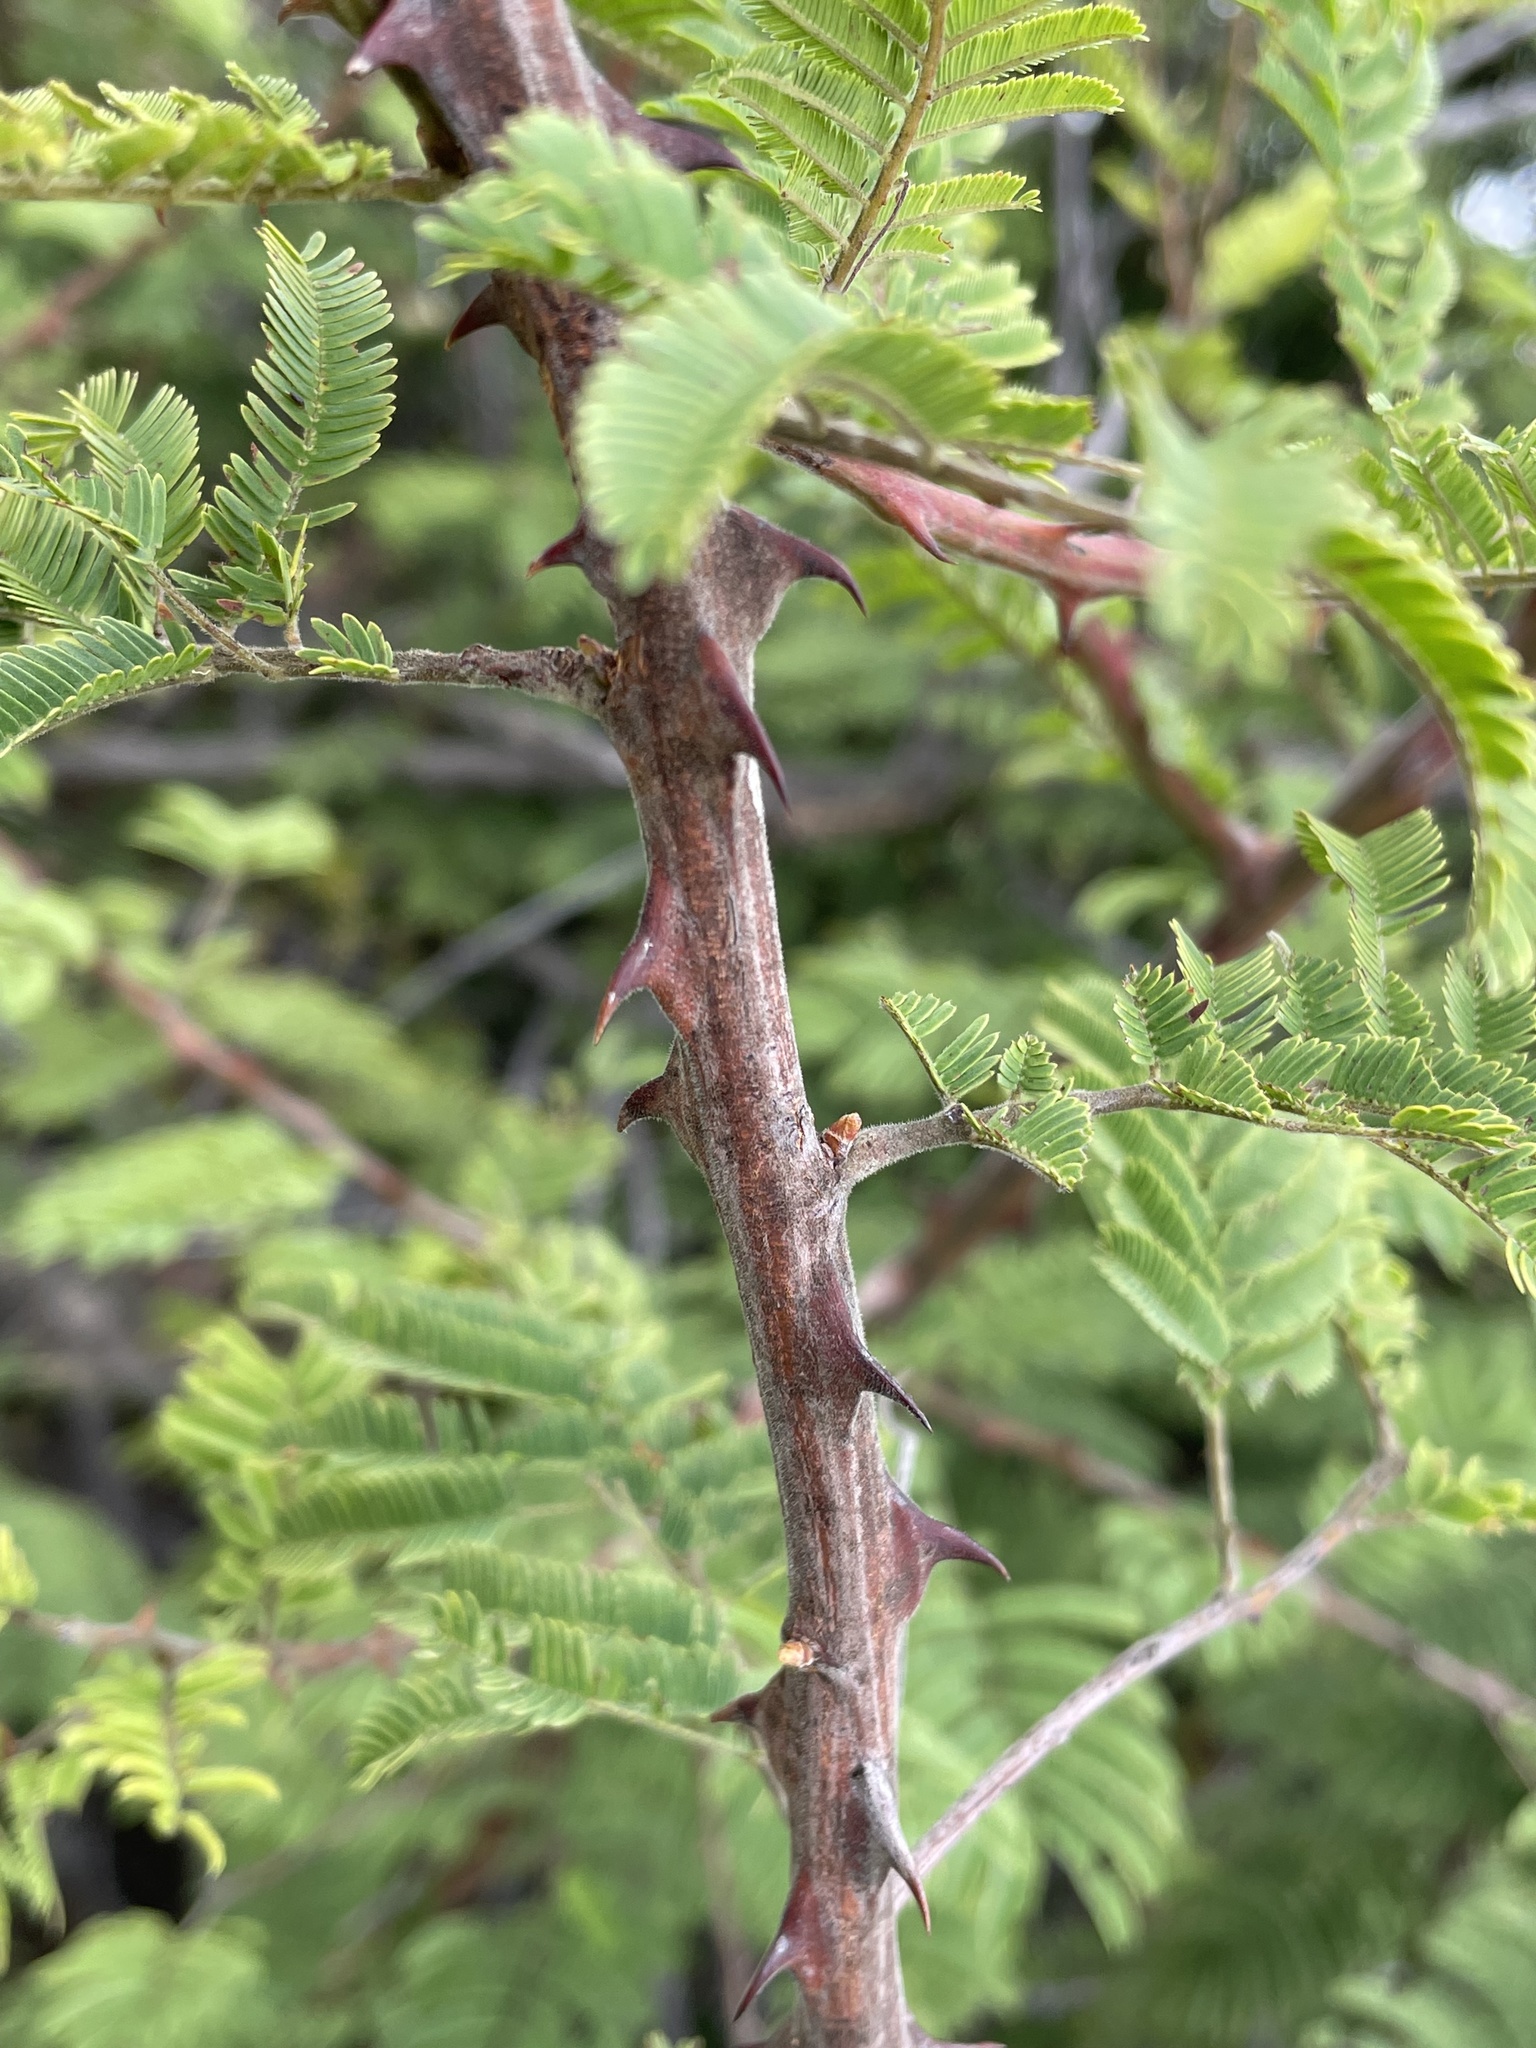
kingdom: Plantae
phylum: Tracheophyta
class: Magnoliopsida
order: Fabales
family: Fabaceae
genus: Senegalia
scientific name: Senegalia ataxacantha
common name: Flame acacia
